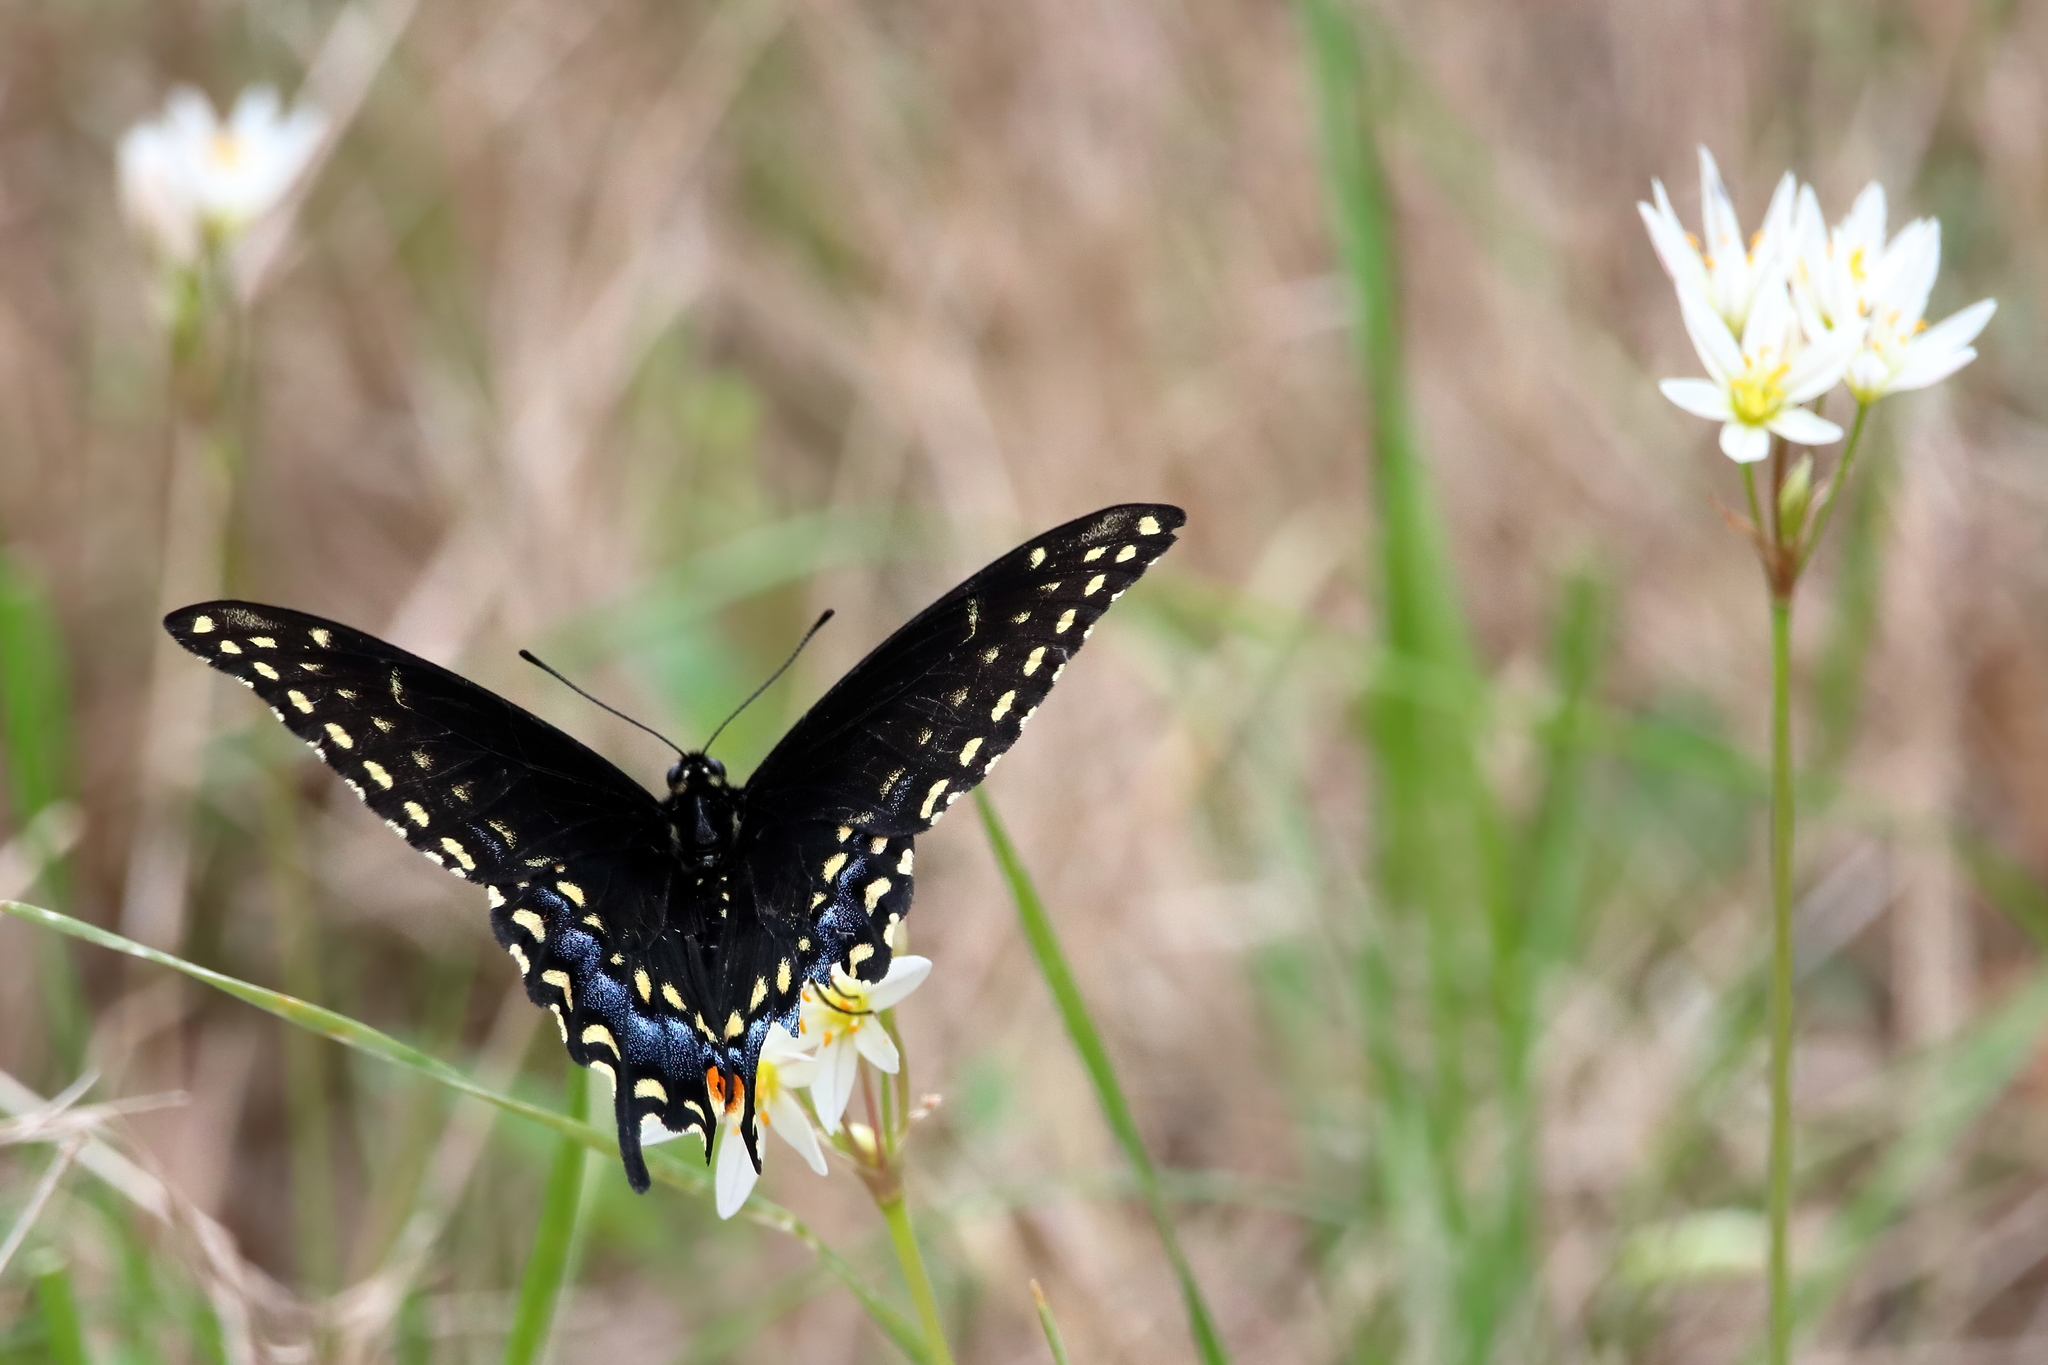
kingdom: Animalia
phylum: Arthropoda
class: Insecta
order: Lepidoptera
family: Papilionidae
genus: Papilio
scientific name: Papilio polyxenes
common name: Black swallowtail
